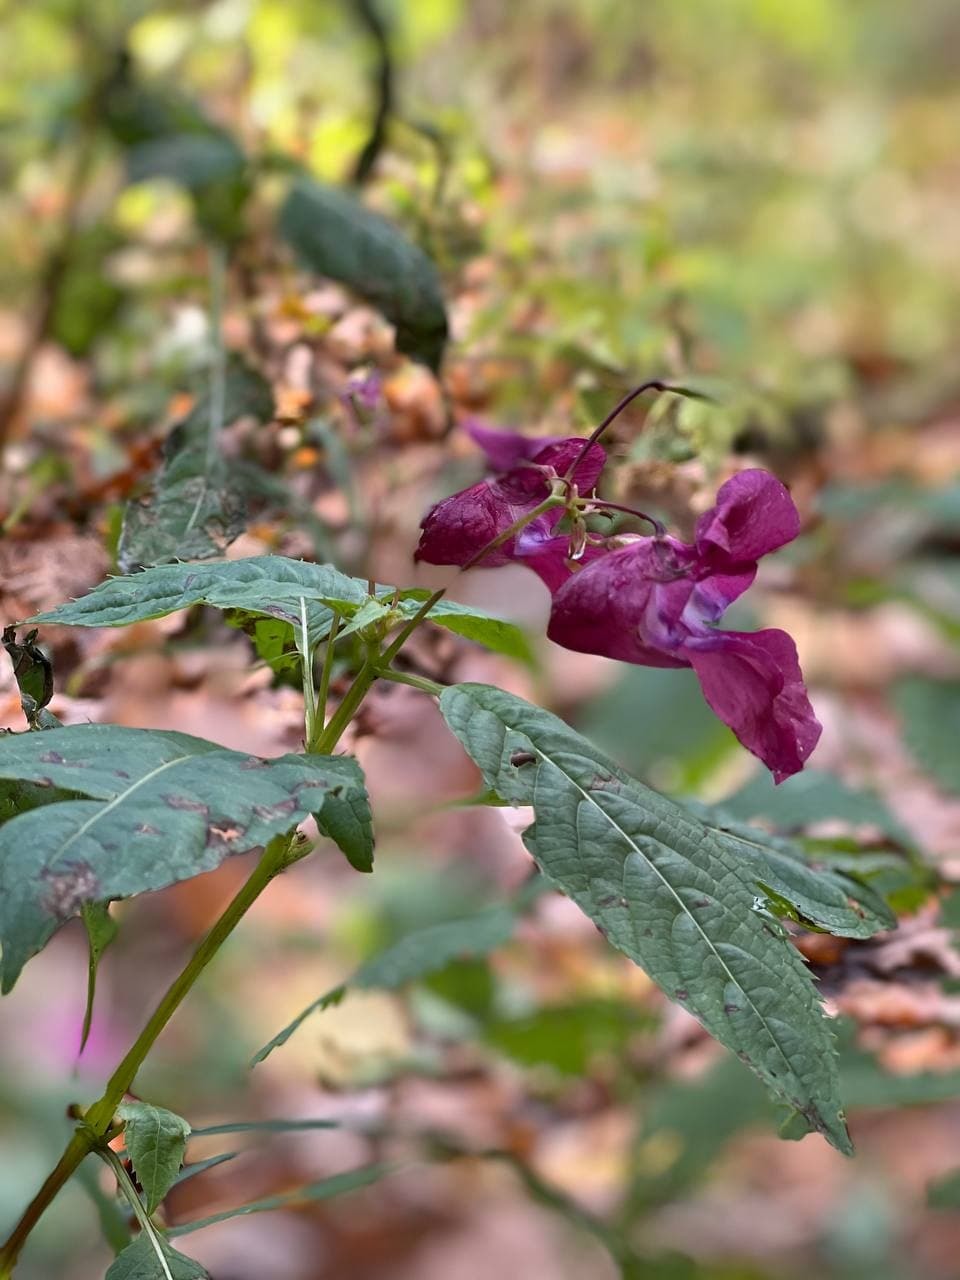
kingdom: Plantae
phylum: Tracheophyta
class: Magnoliopsida
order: Ericales
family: Balsaminaceae
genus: Impatiens
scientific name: Impatiens glandulifera
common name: Himalayan balsam
